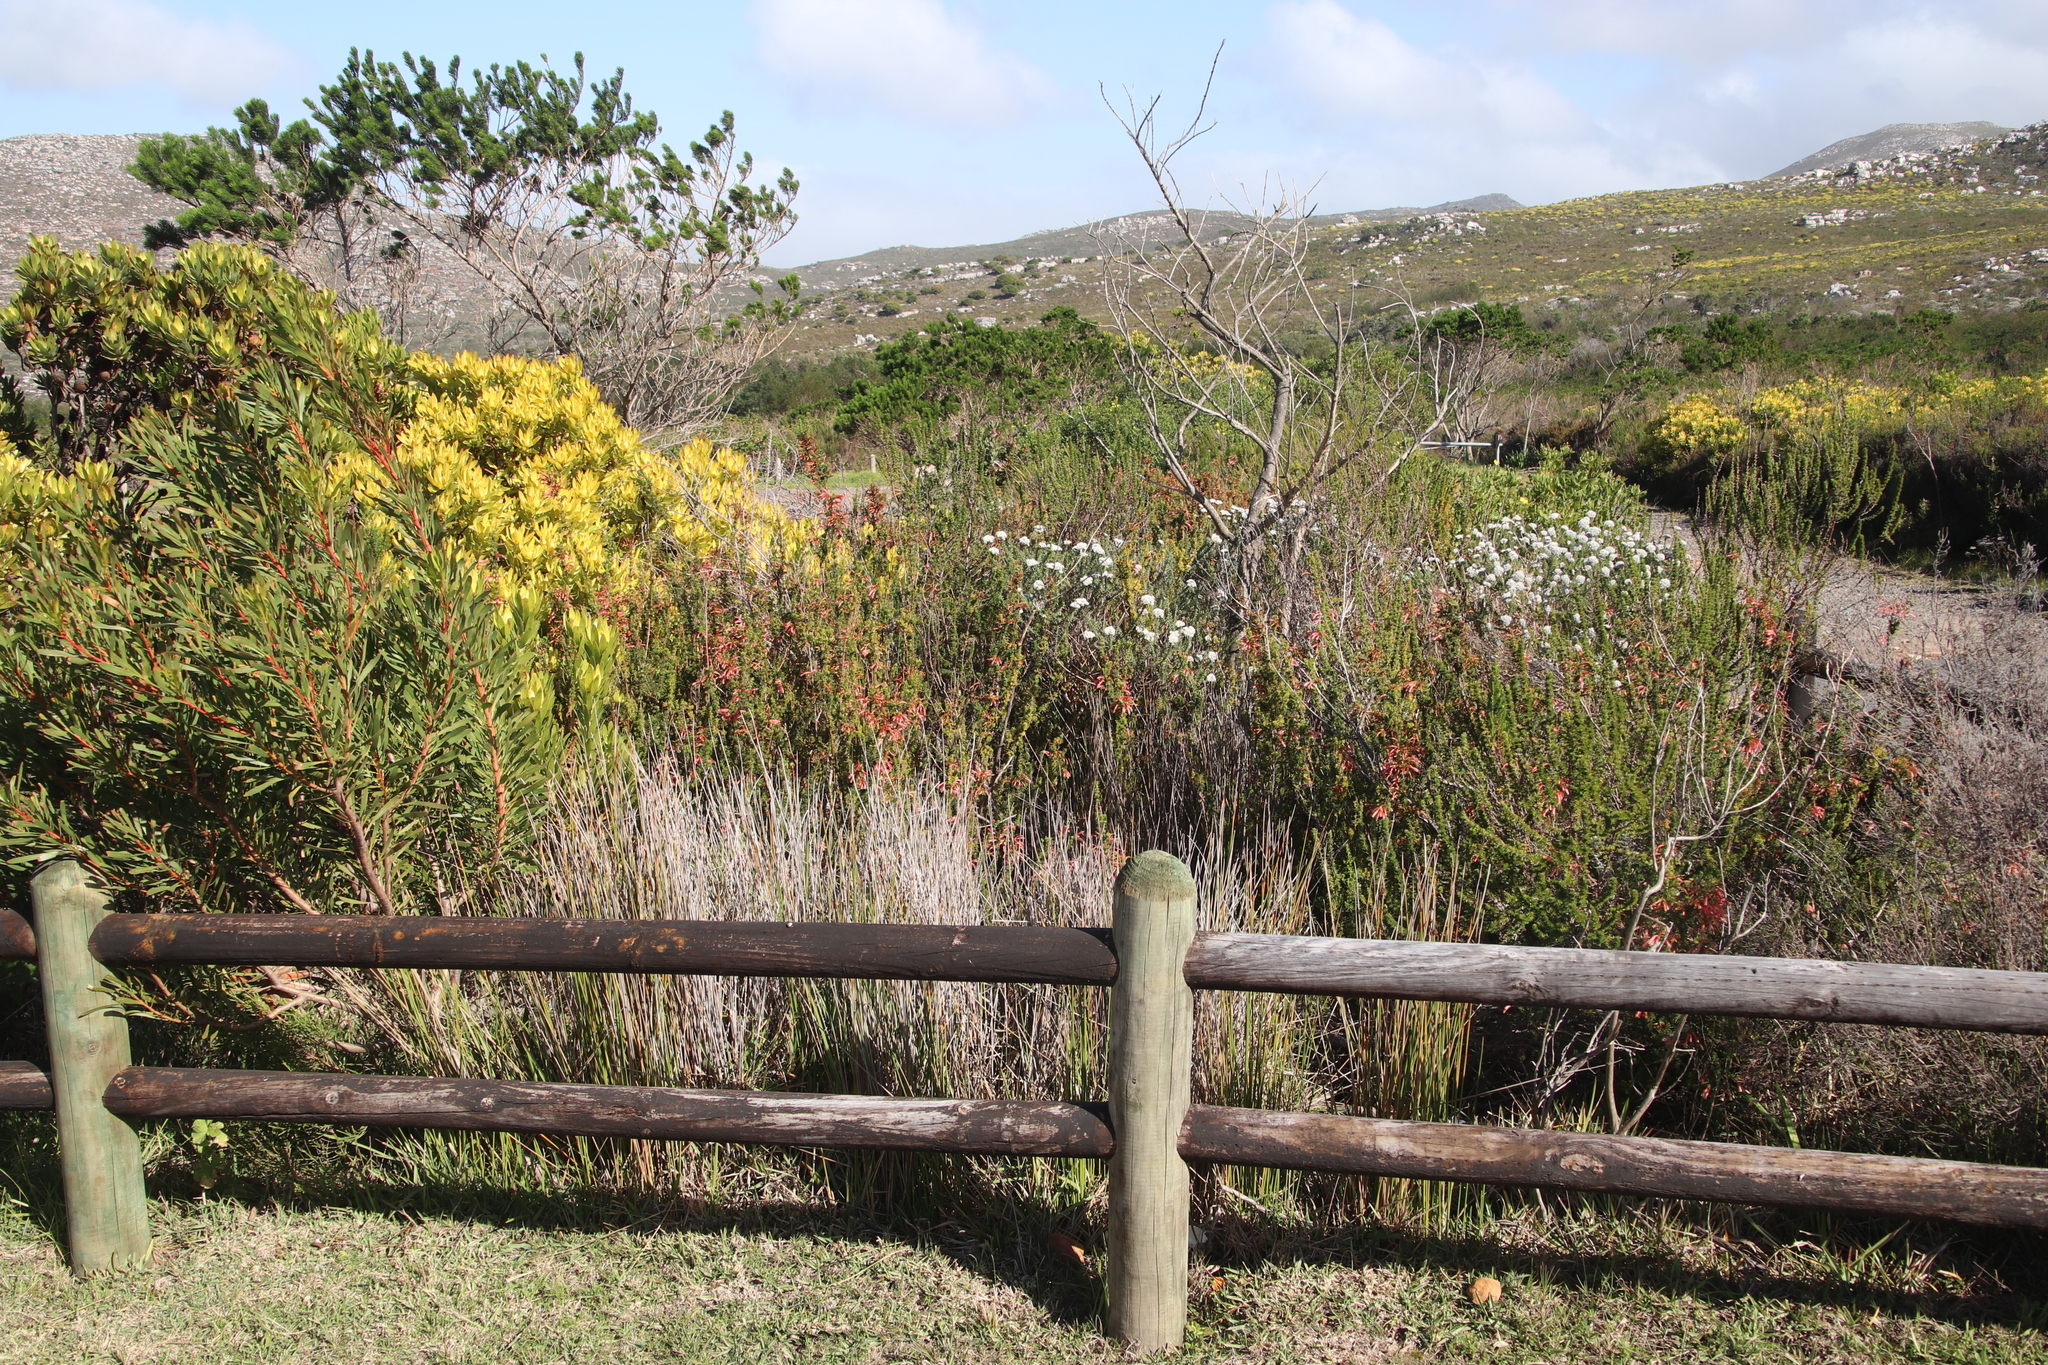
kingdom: Plantae
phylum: Tracheophyta
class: Magnoliopsida
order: Ericales
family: Ericaceae
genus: Erica
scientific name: Erica glandulosa
